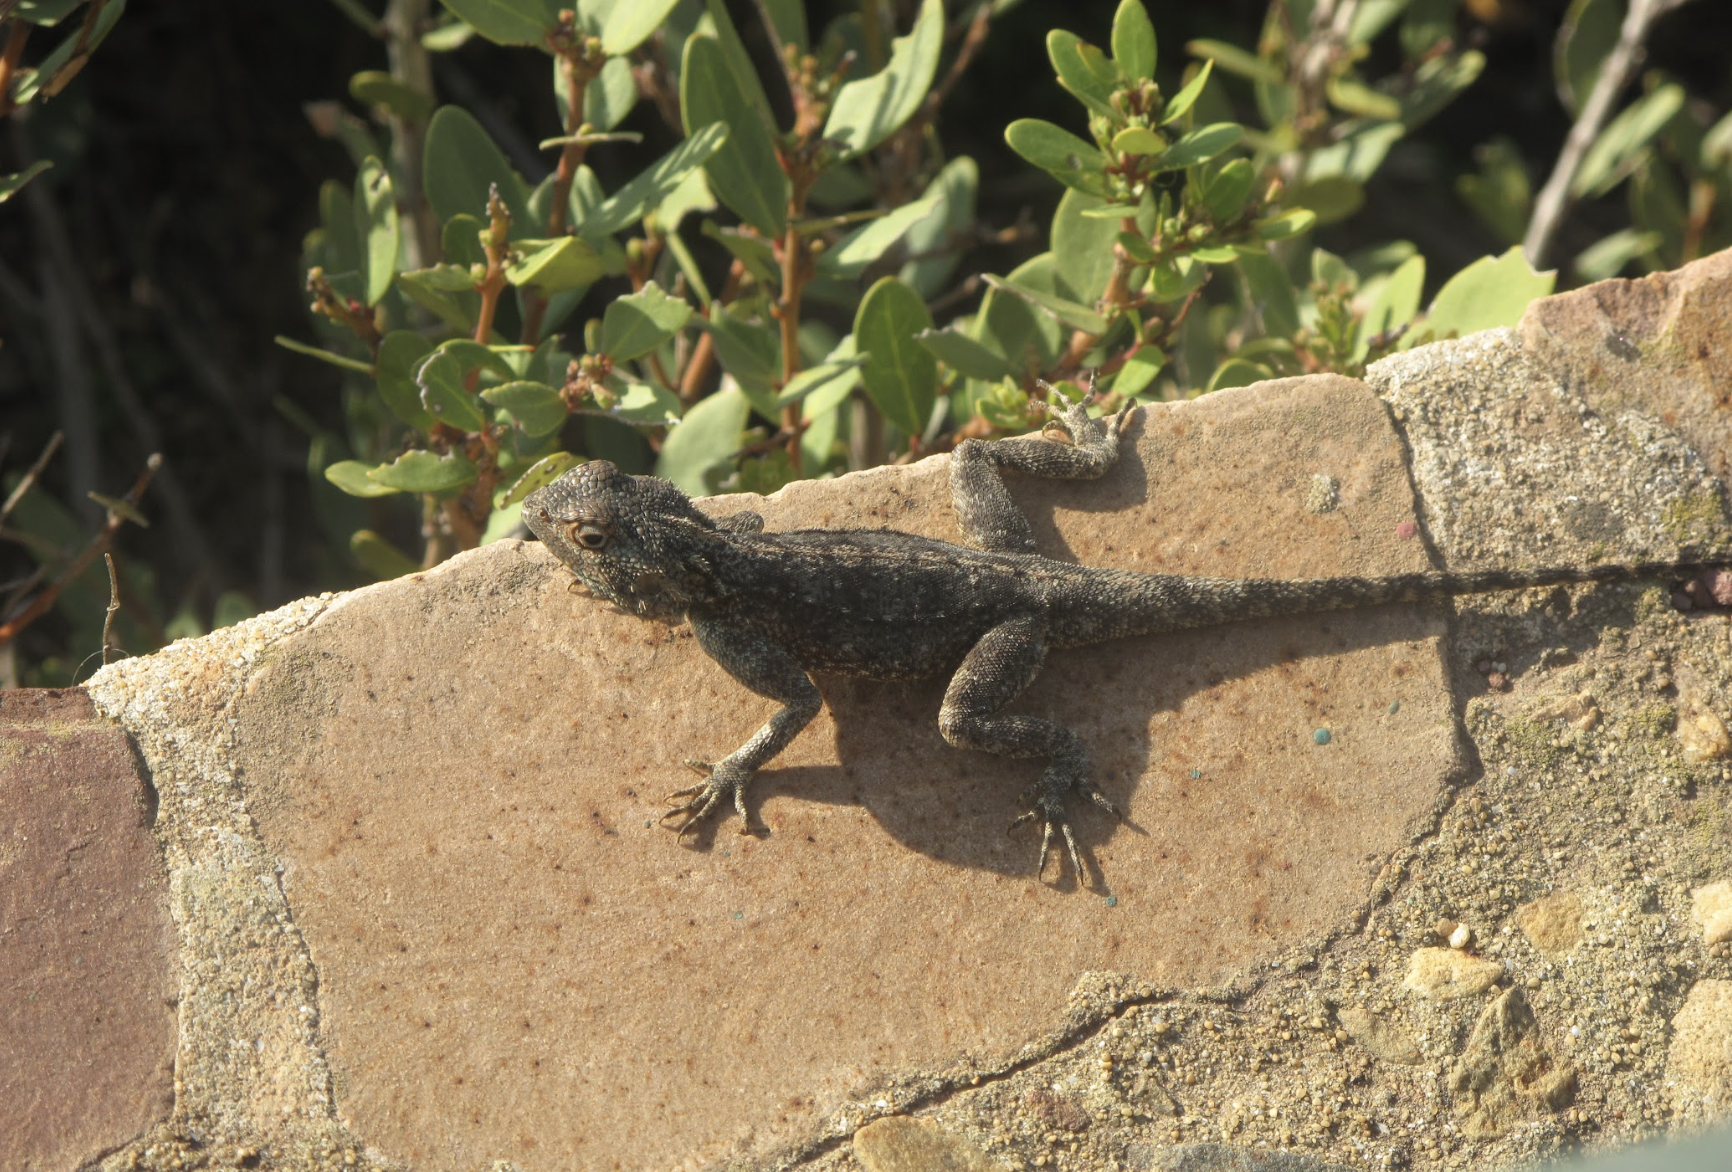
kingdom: Animalia
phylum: Chordata
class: Squamata
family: Agamidae
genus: Agama
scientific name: Agama atra
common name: Southern african rock agama
